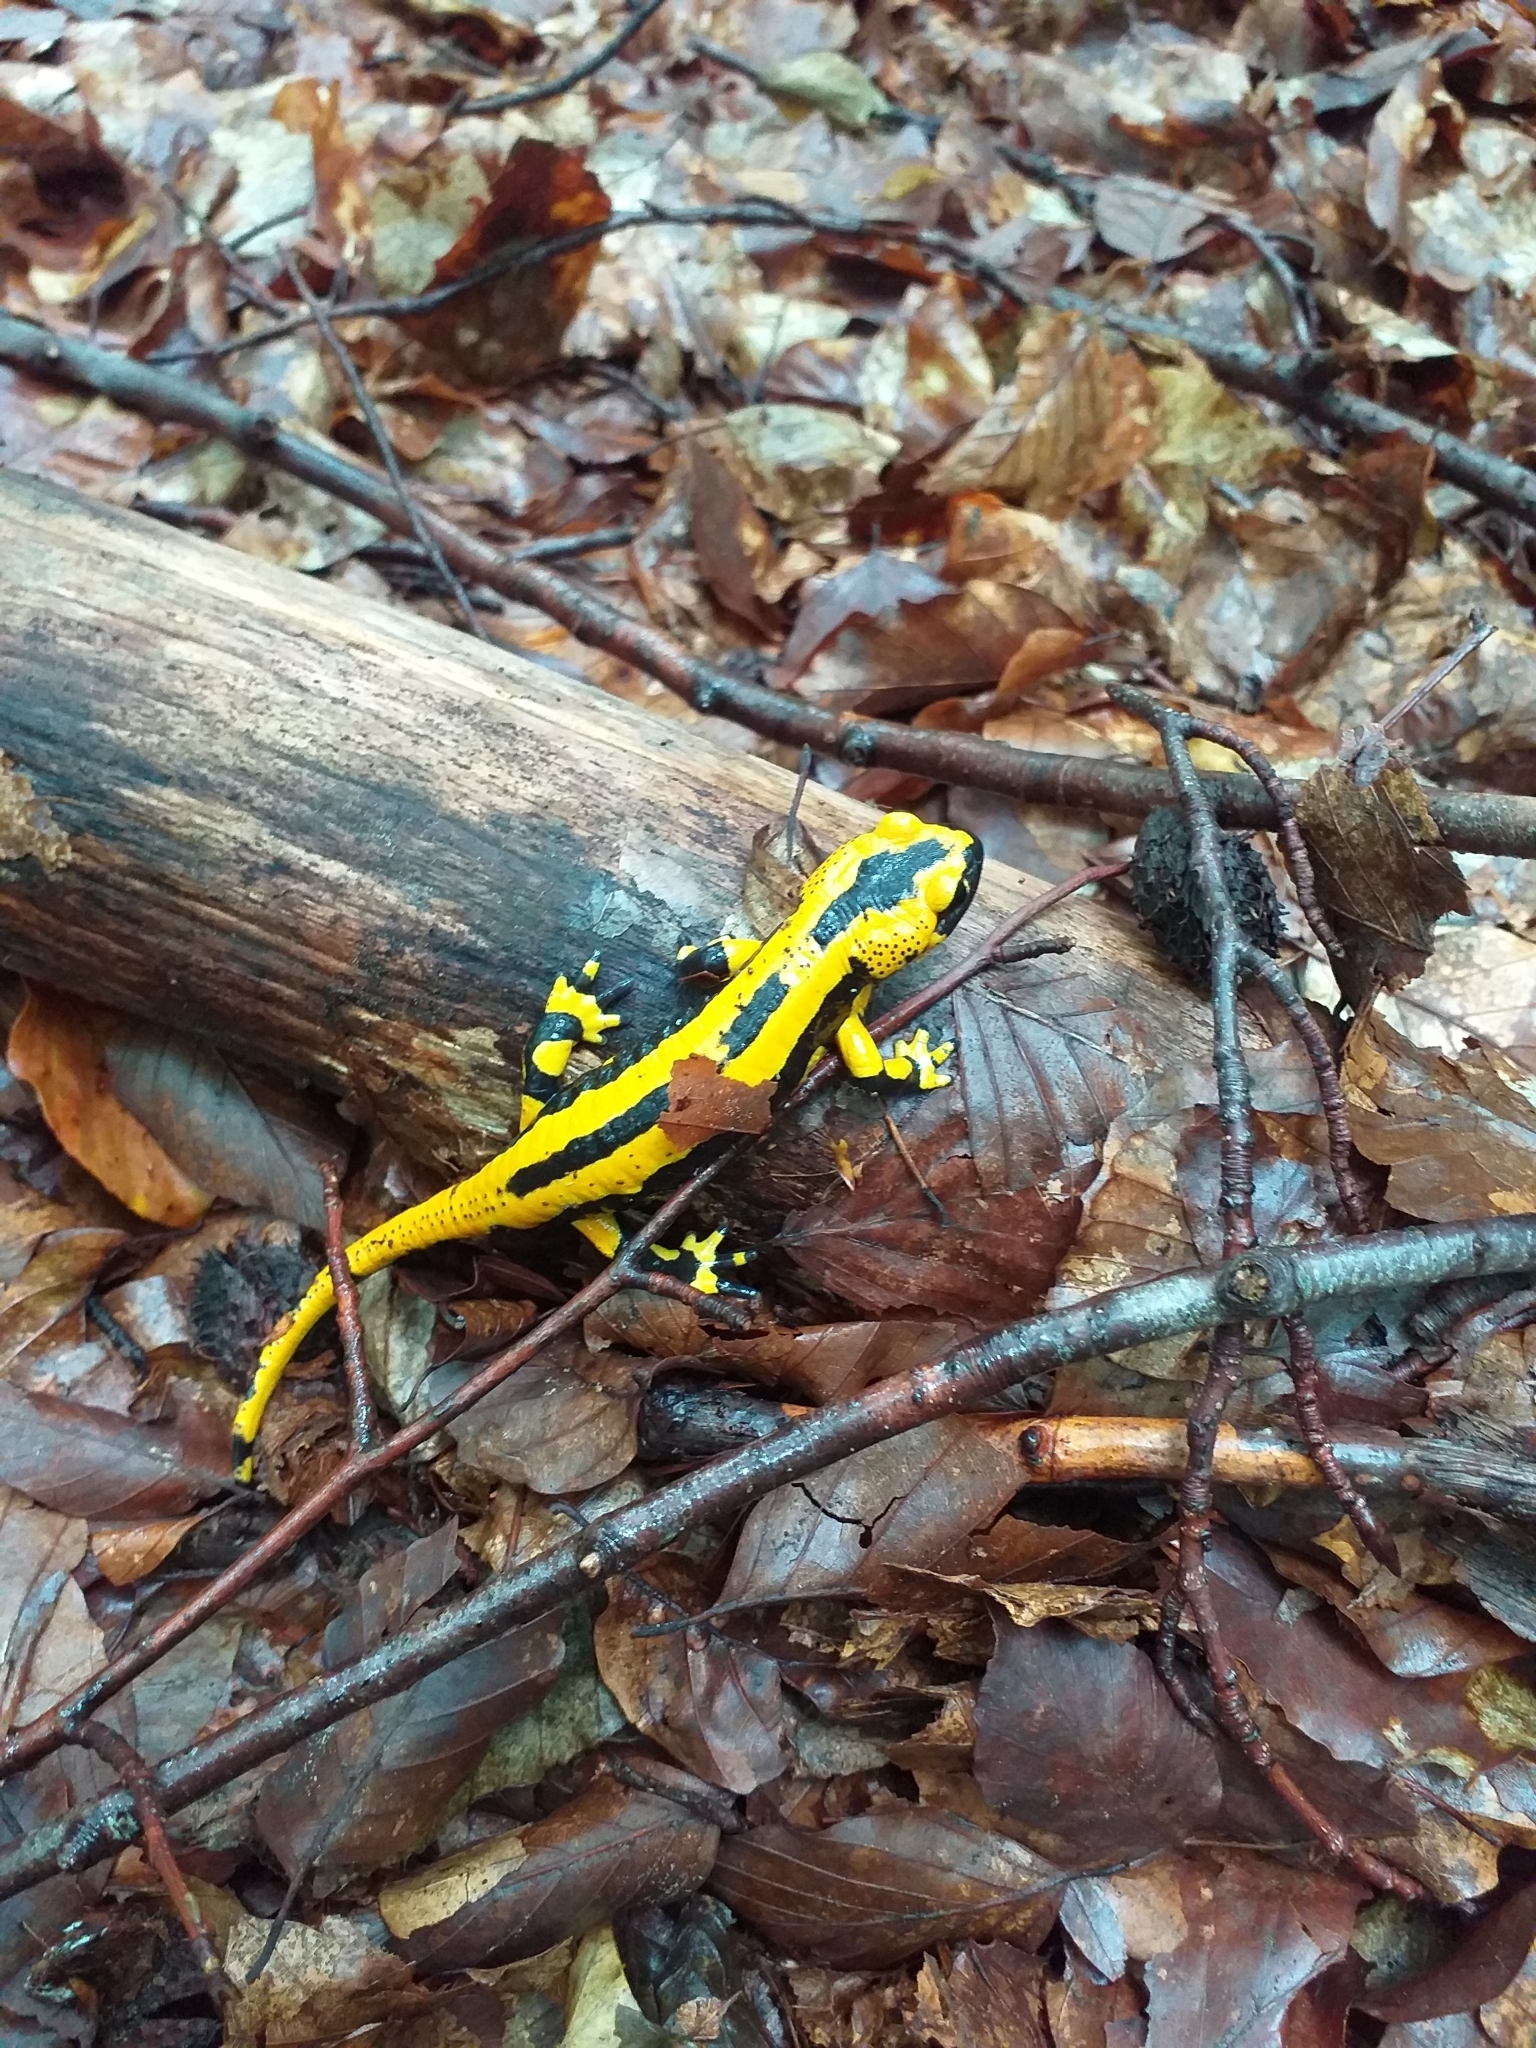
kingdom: Animalia
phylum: Chordata
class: Amphibia
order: Caudata
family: Salamandridae
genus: Salamandra
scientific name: Salamandra salamandra
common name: Fire salamander
